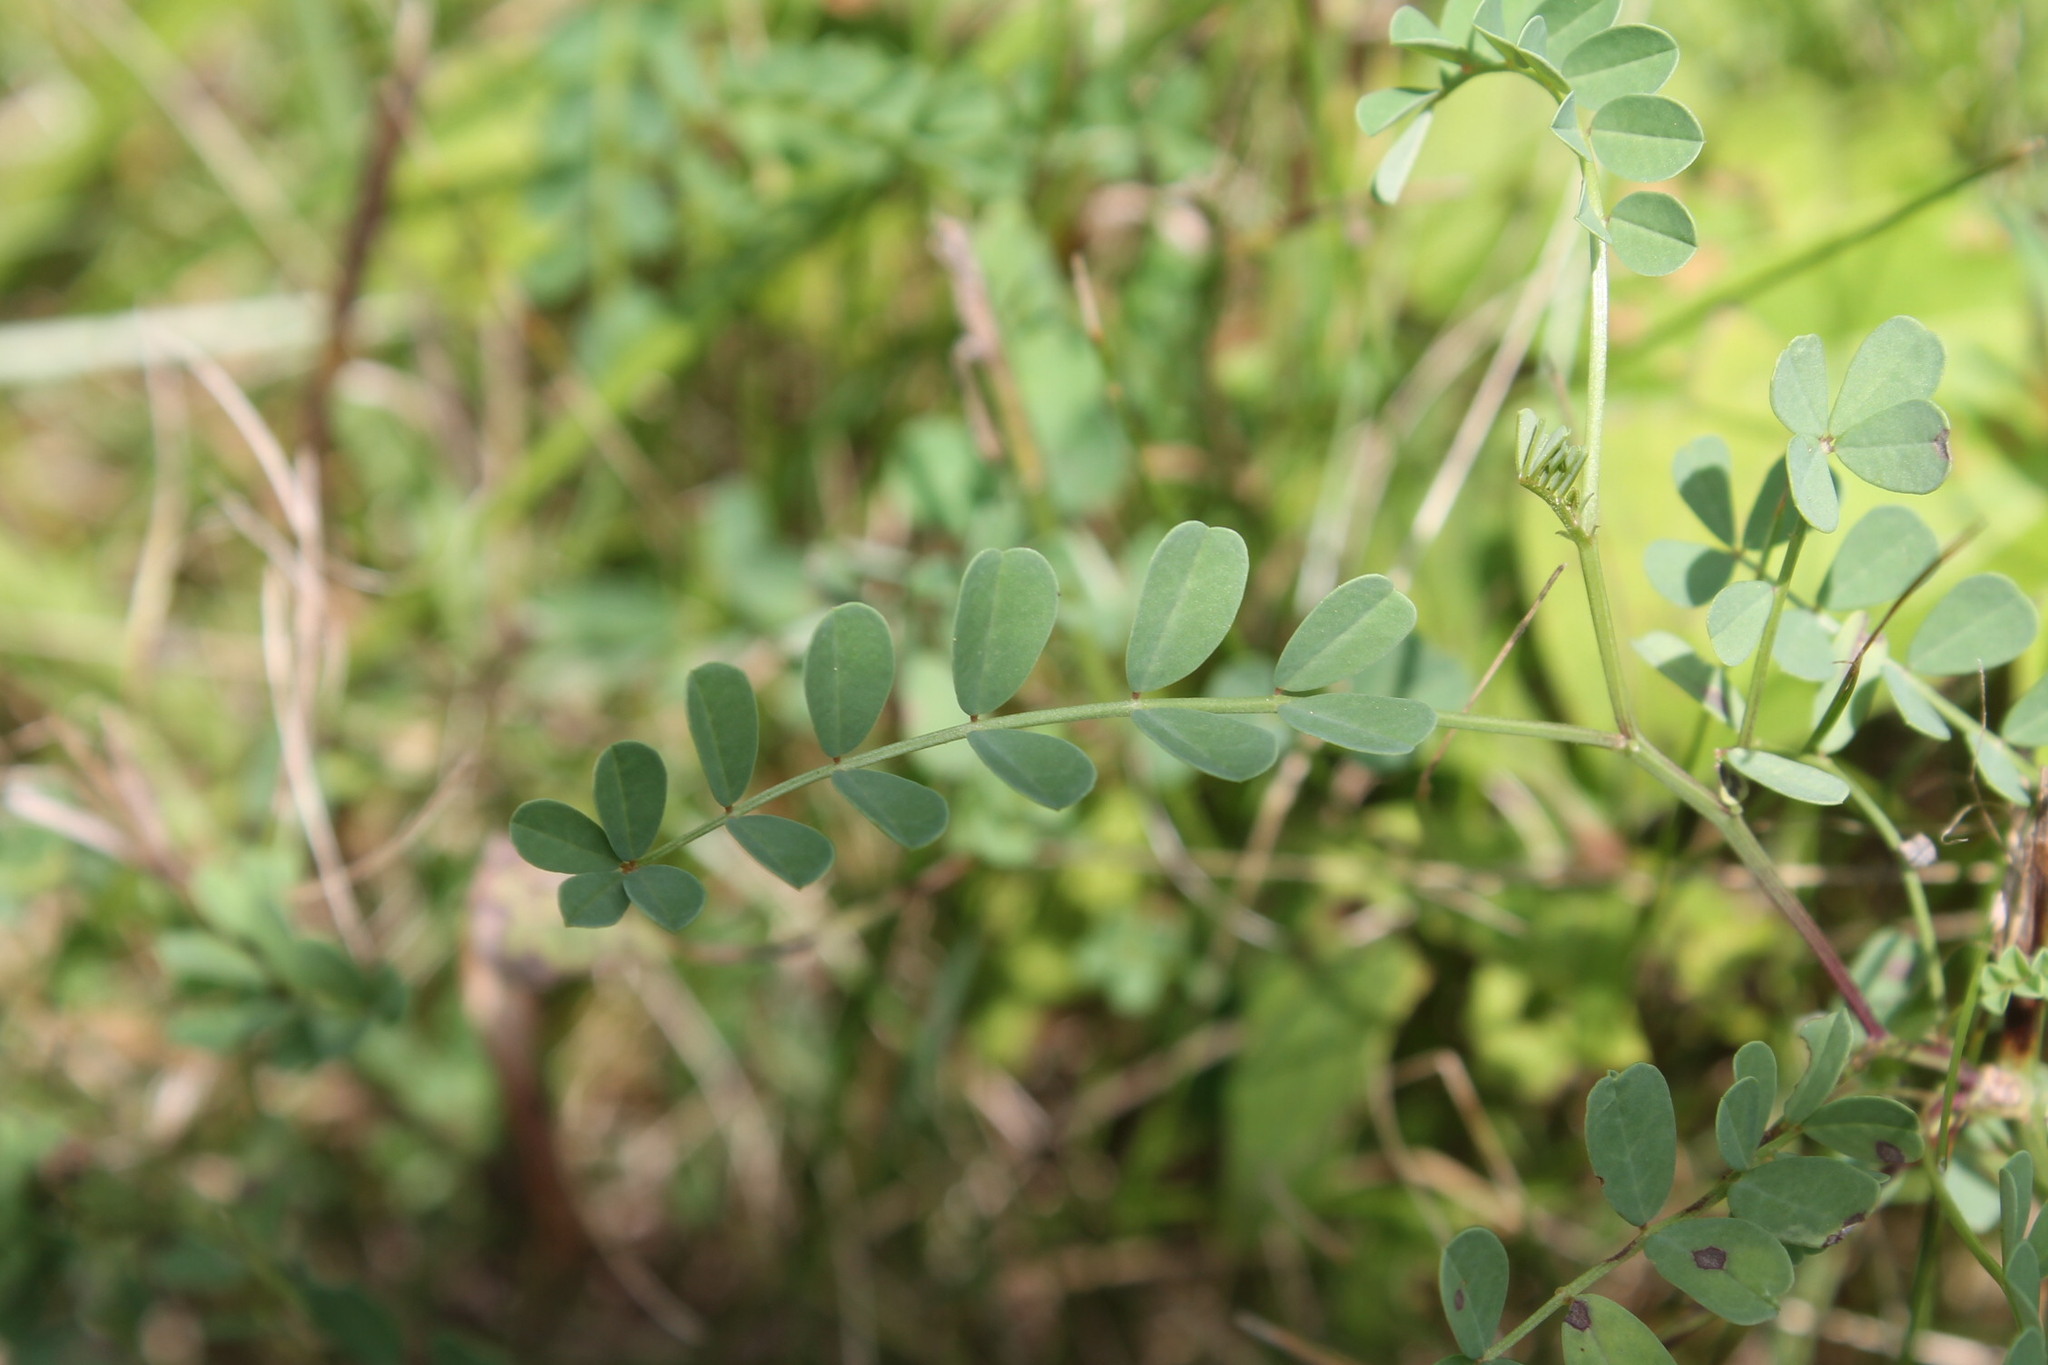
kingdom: Plantae
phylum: Tracheophyta
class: Magnoliopsida
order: Fabales
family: Fabaceae
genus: Coronilla
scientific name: Coronilla varia
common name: Crownvetch
